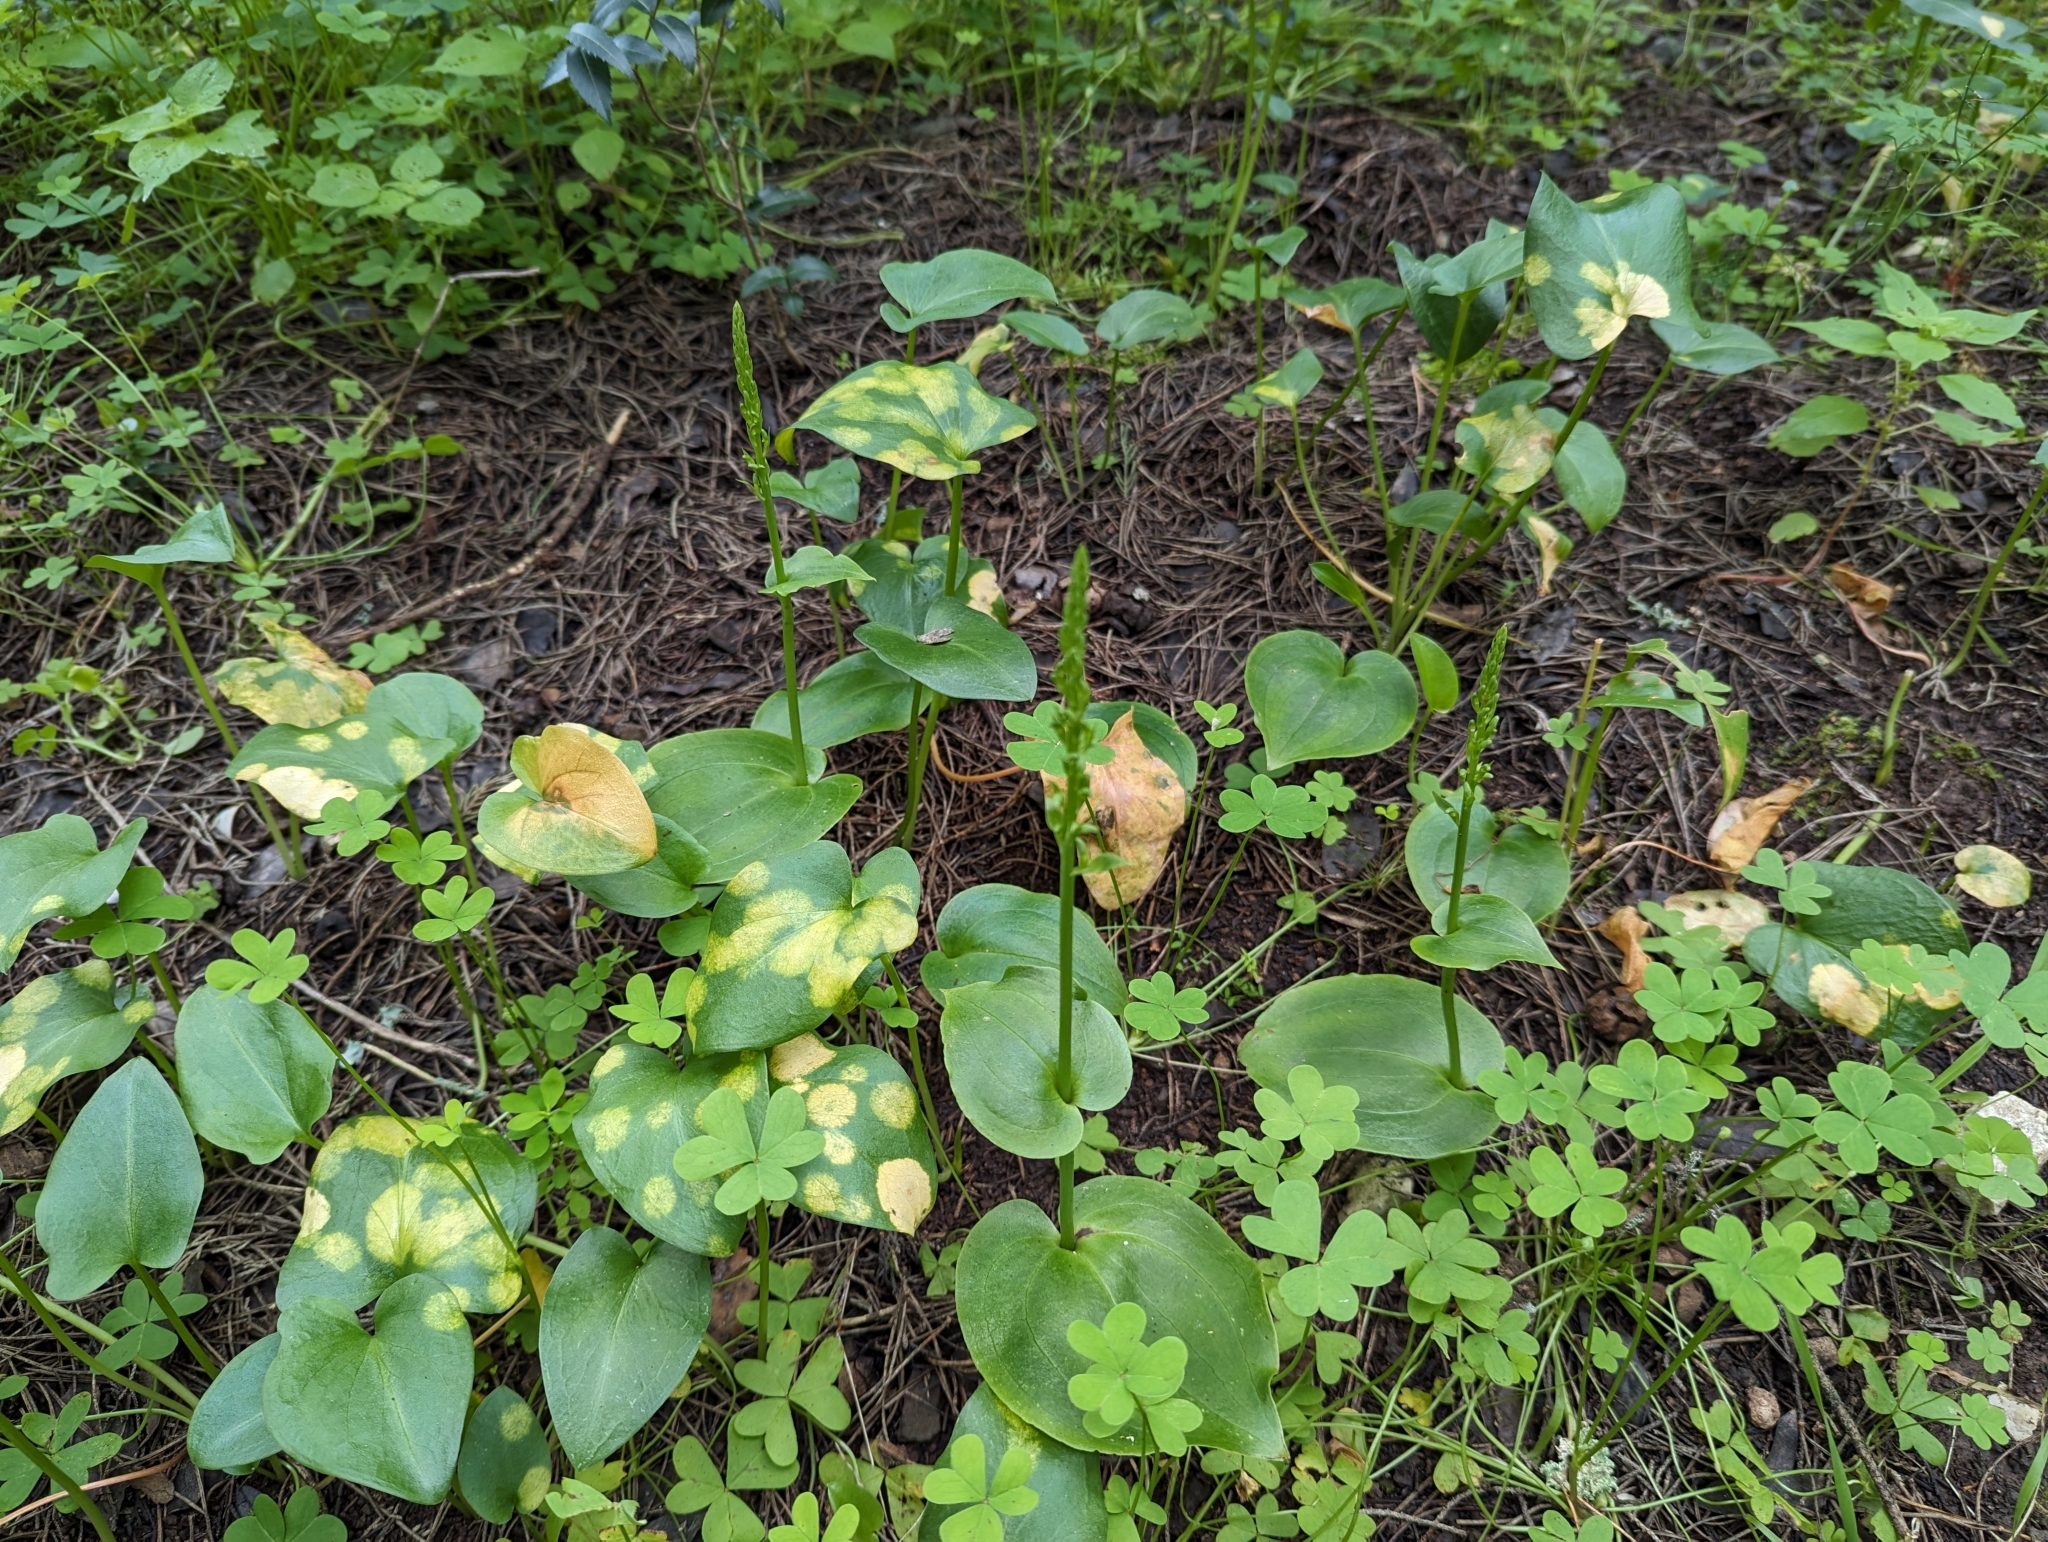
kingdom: Plantae
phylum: Tracheophyta
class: Liliopsida
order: Asparagales
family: Orchidaceae
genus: Gennaria
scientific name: Gennaria diphylla
